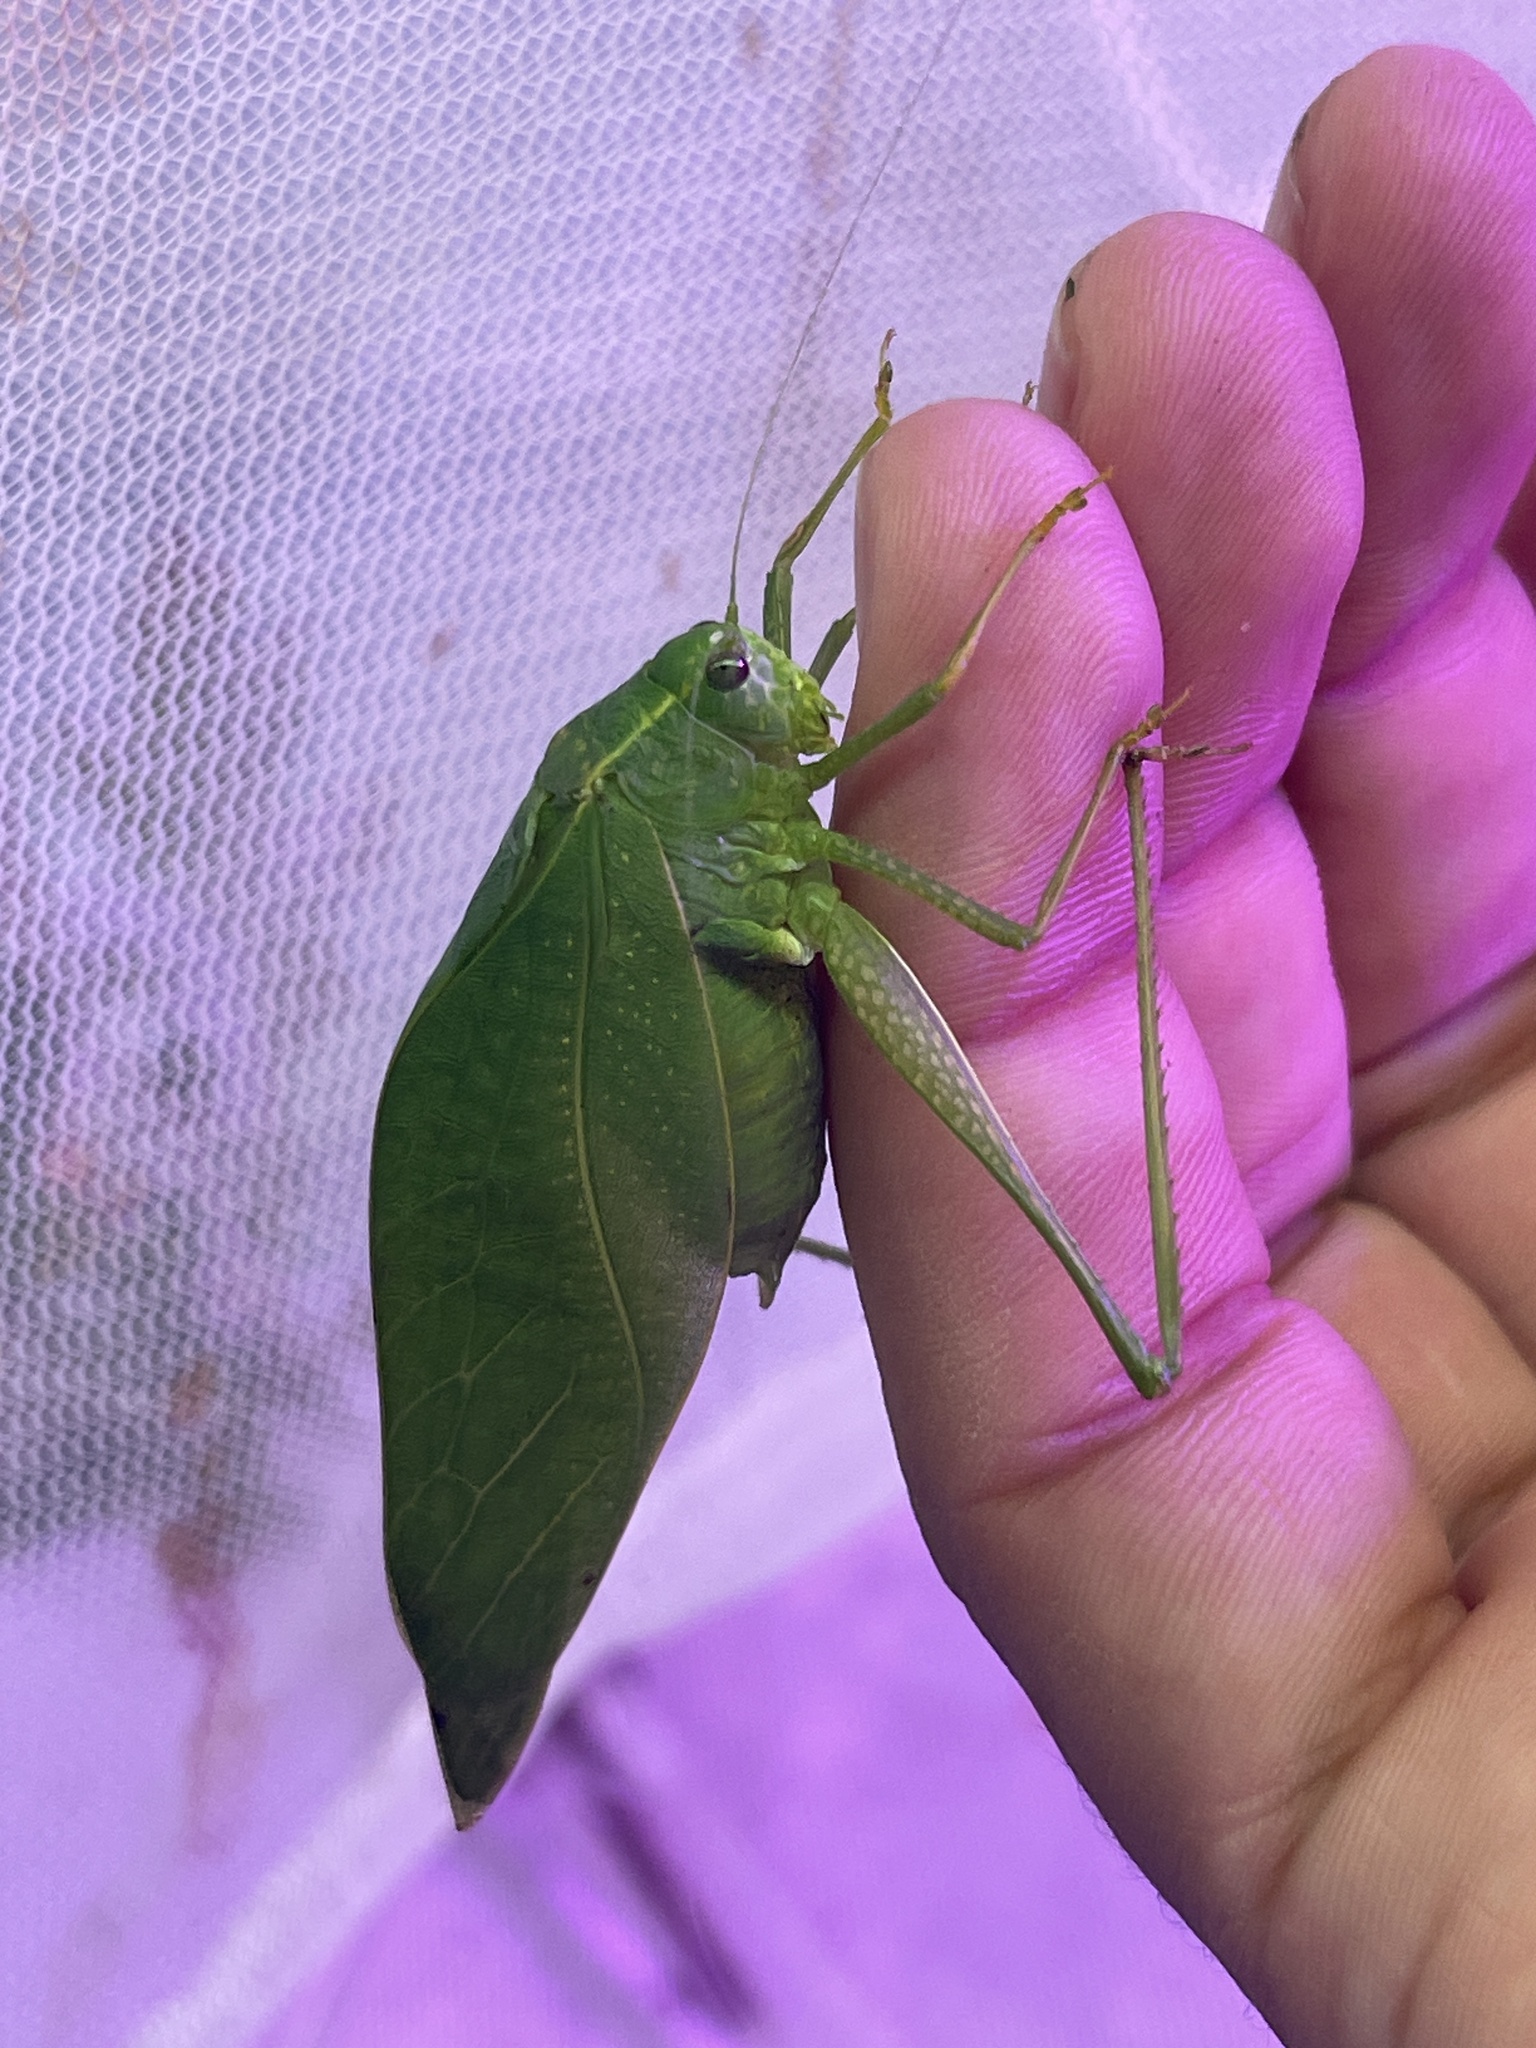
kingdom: Animalia
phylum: Arthropoda
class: Insecta
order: Orthoptera
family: Tettigoniidae
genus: Microcentrum
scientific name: Microcentrum rhombifolium
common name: Broad-winged katydid
